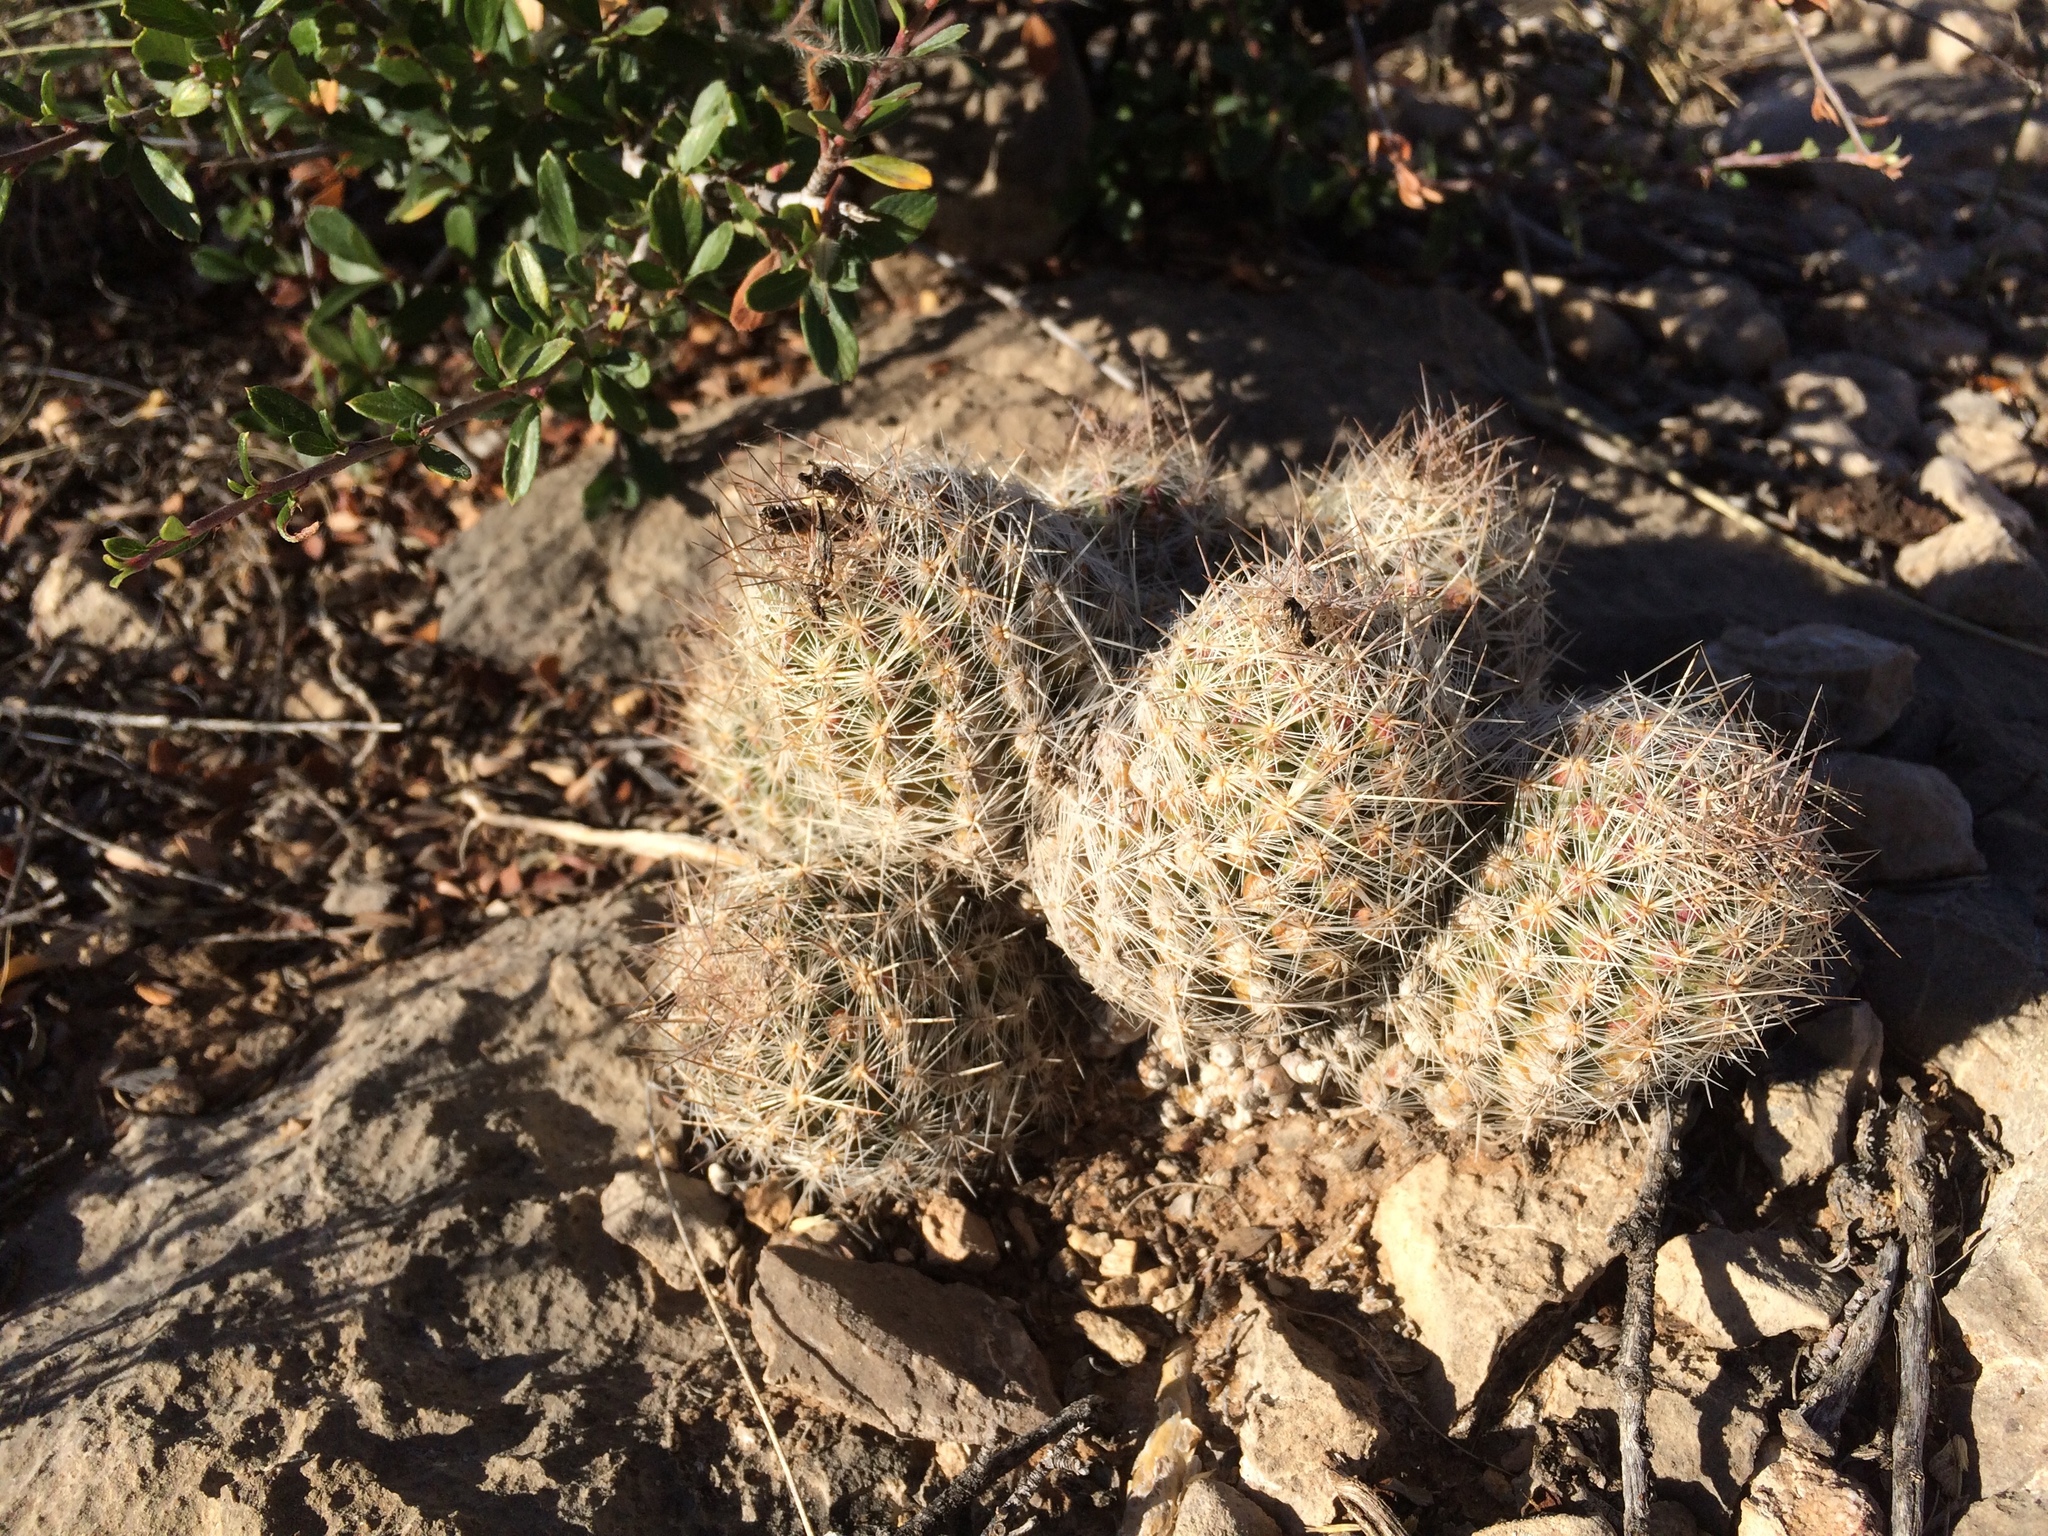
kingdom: Plantae
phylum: Tracheophyta
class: Magnoliopsida
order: Caryophyllales
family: Cactaceae
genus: Pelecyphora
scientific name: Pelecyphora tuberculosa
